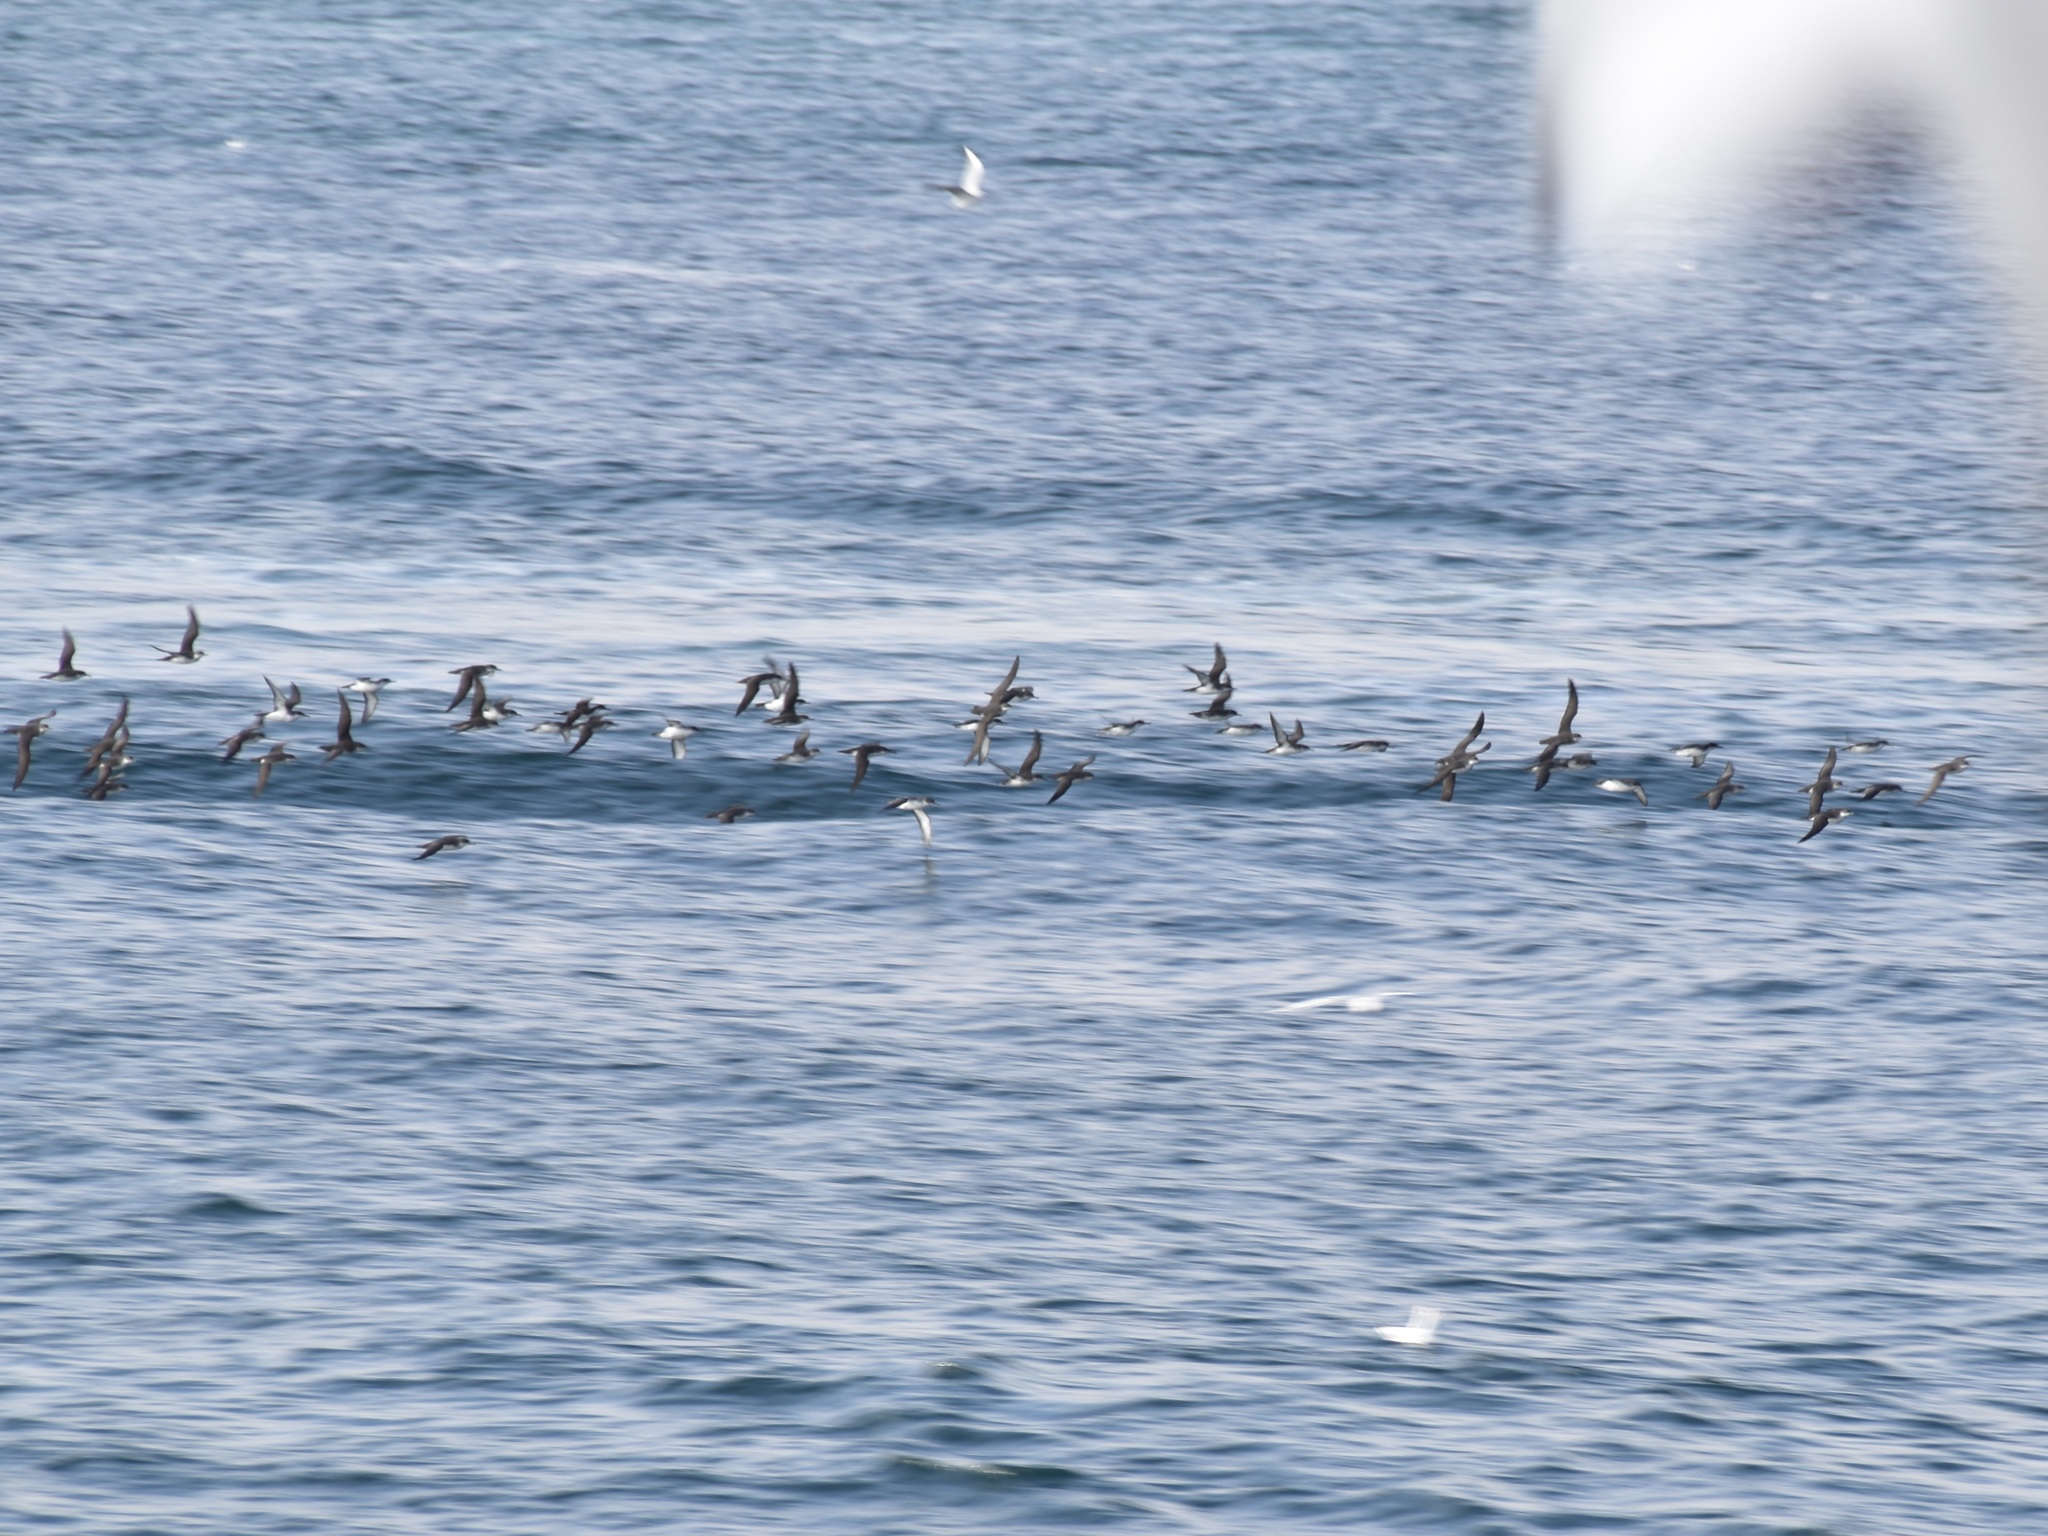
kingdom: Animalia
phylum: Chordata
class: Aves
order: Procellariiformes
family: Procellariidae
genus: Puffinus
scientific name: Puffinus yelkouan
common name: Yelkouan shearwater
